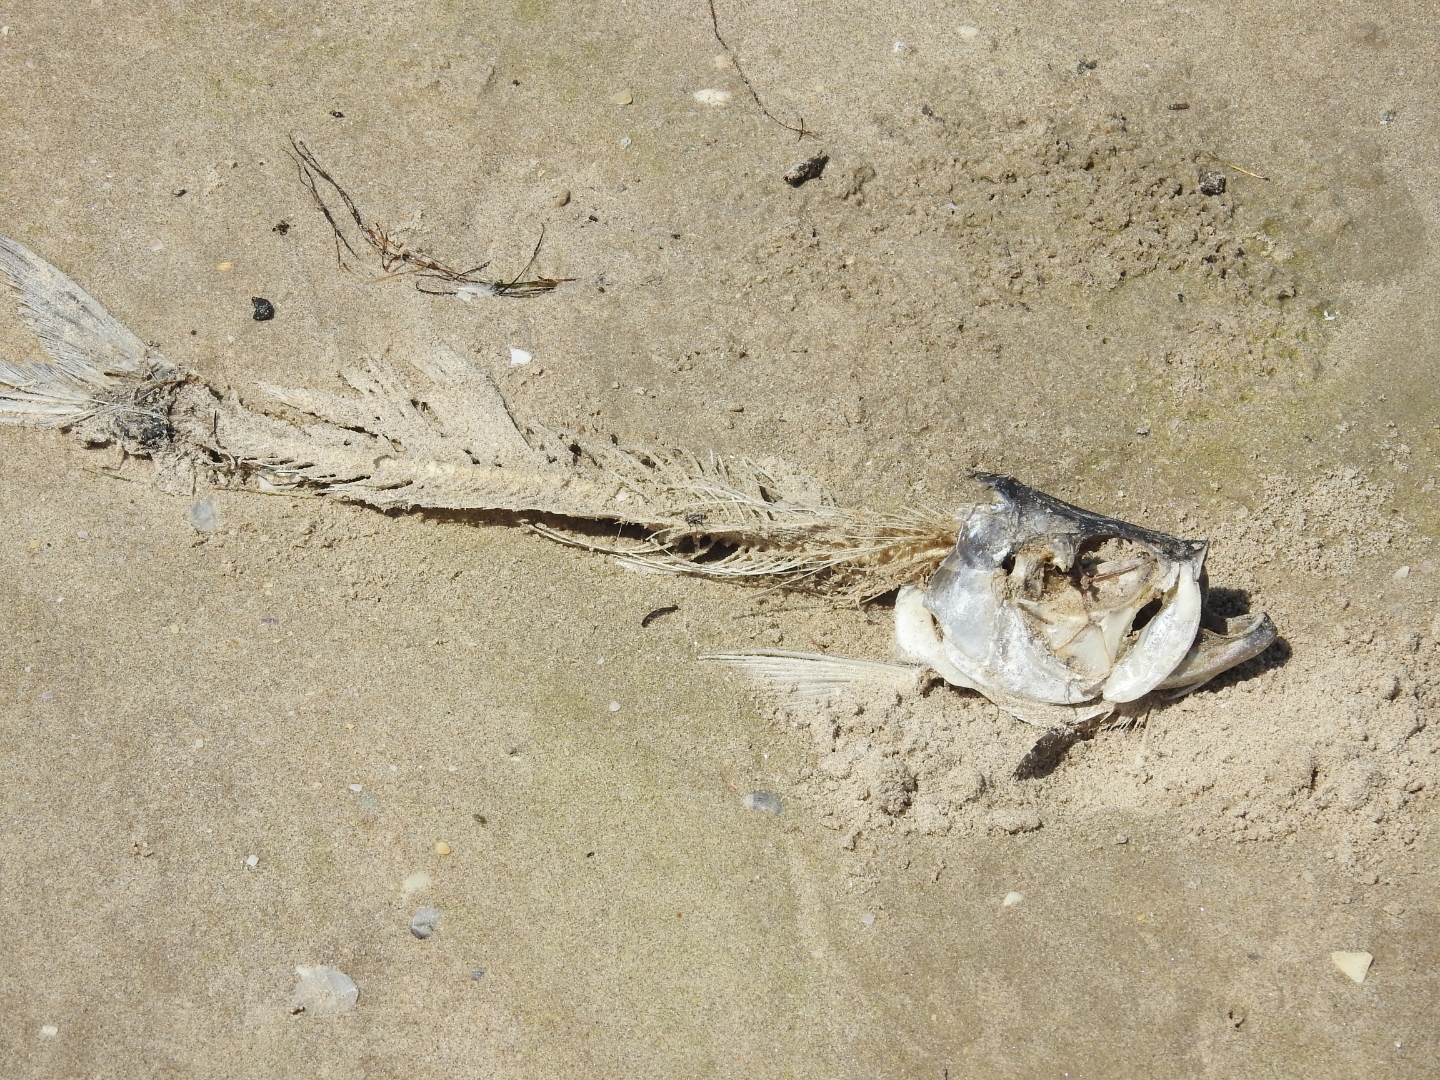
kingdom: Animalia
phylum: Chordata
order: Elopiformes
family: Megalopidae
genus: Megalops
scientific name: Megalops atlanticus
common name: Tarpon
